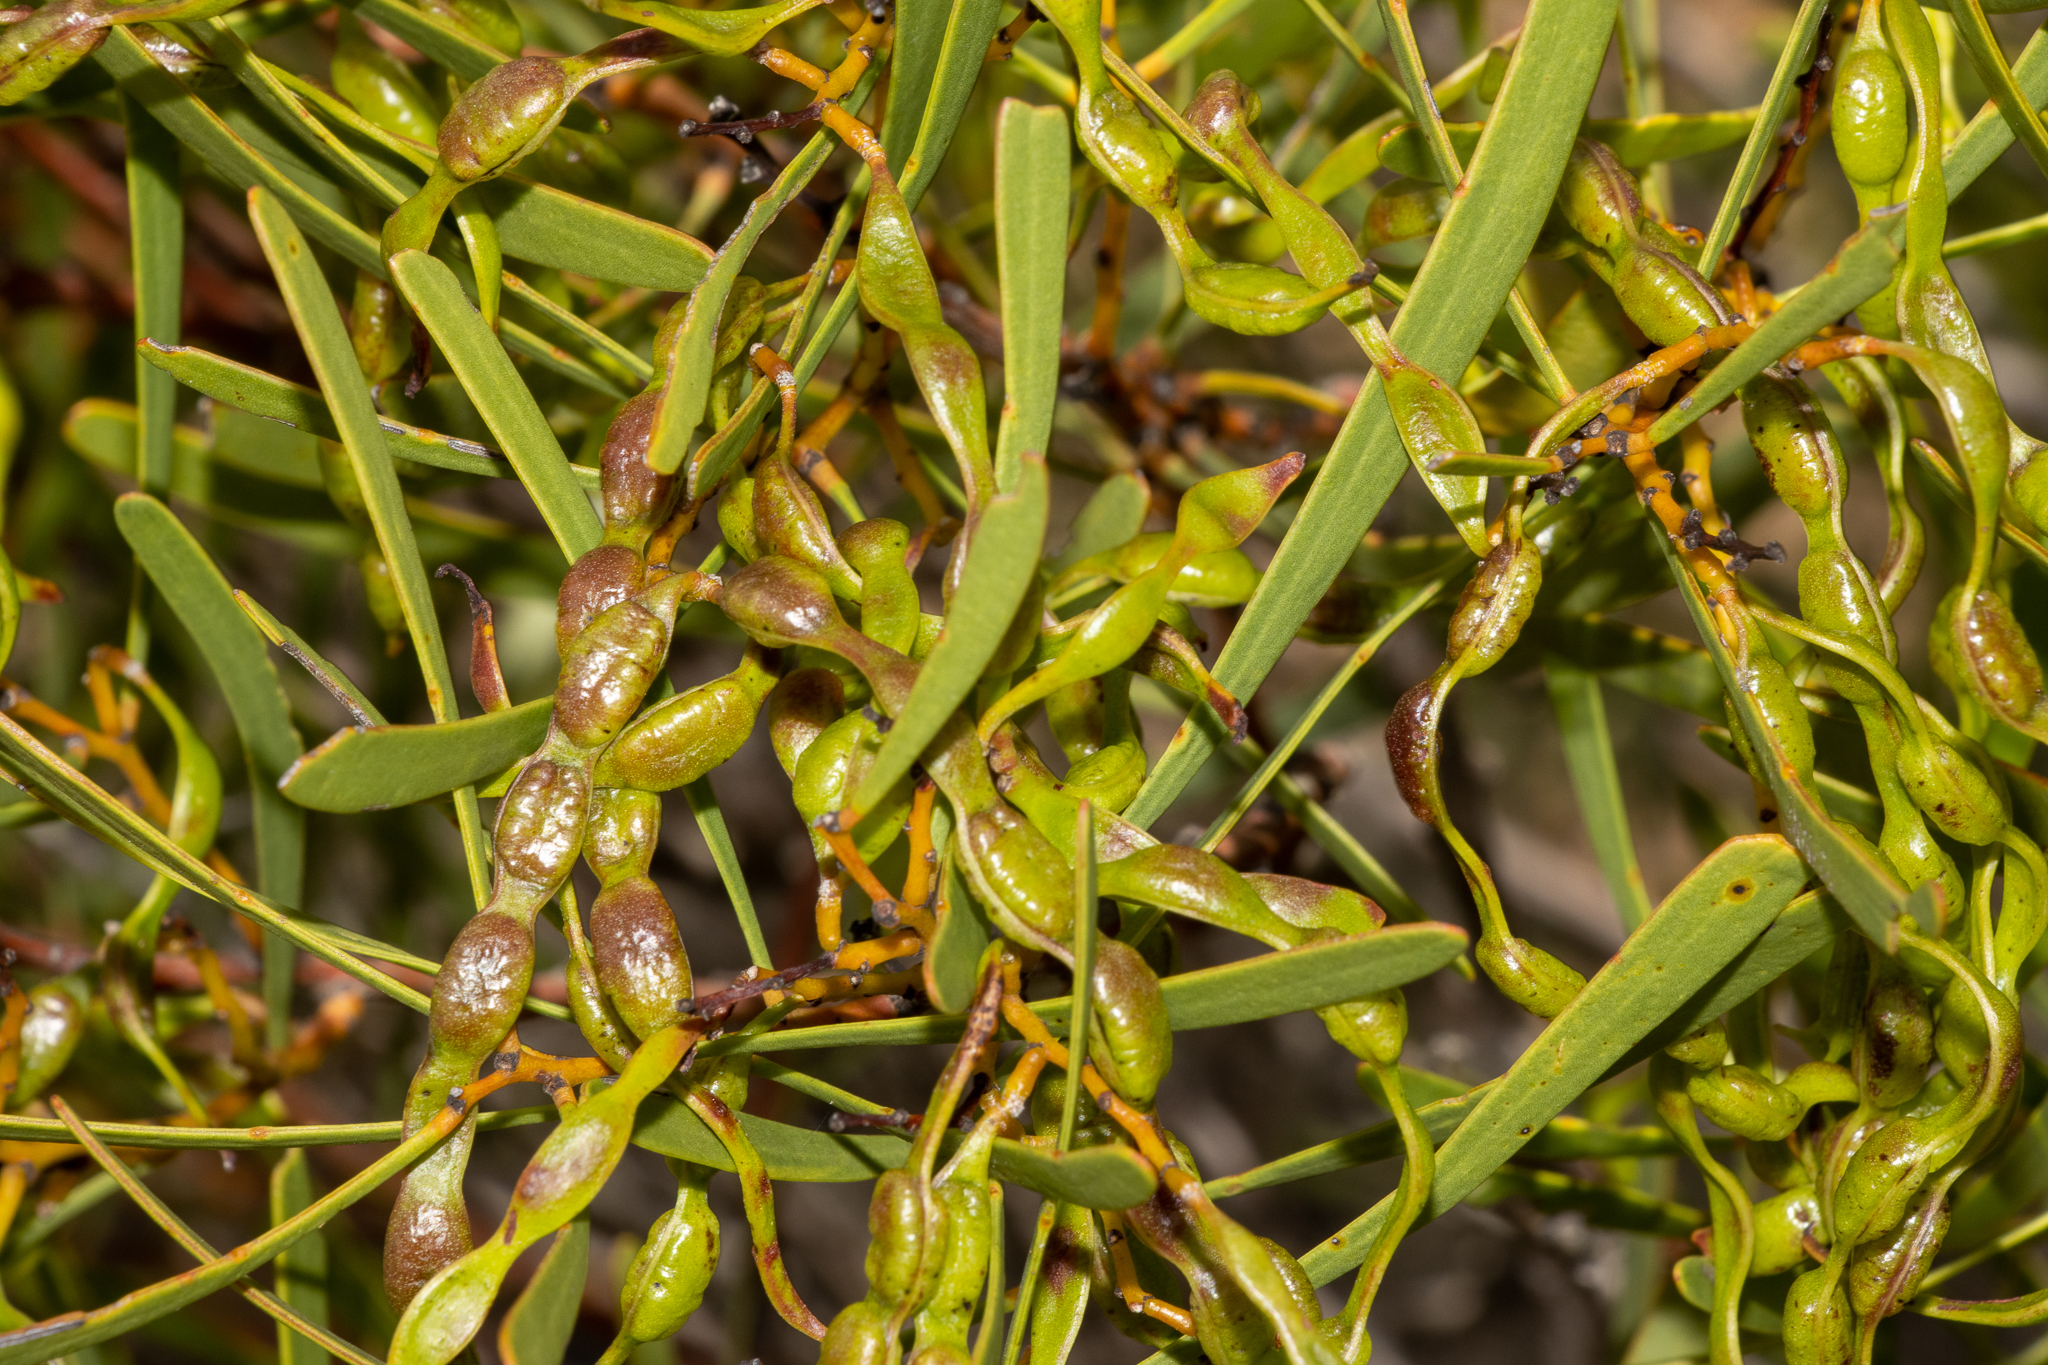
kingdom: Plantae
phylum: Tracheophyta
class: Magnoliopsida
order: Fabales
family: Fabaceae
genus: Acacia
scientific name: Acacia hakeoides
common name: Hakea wattle
